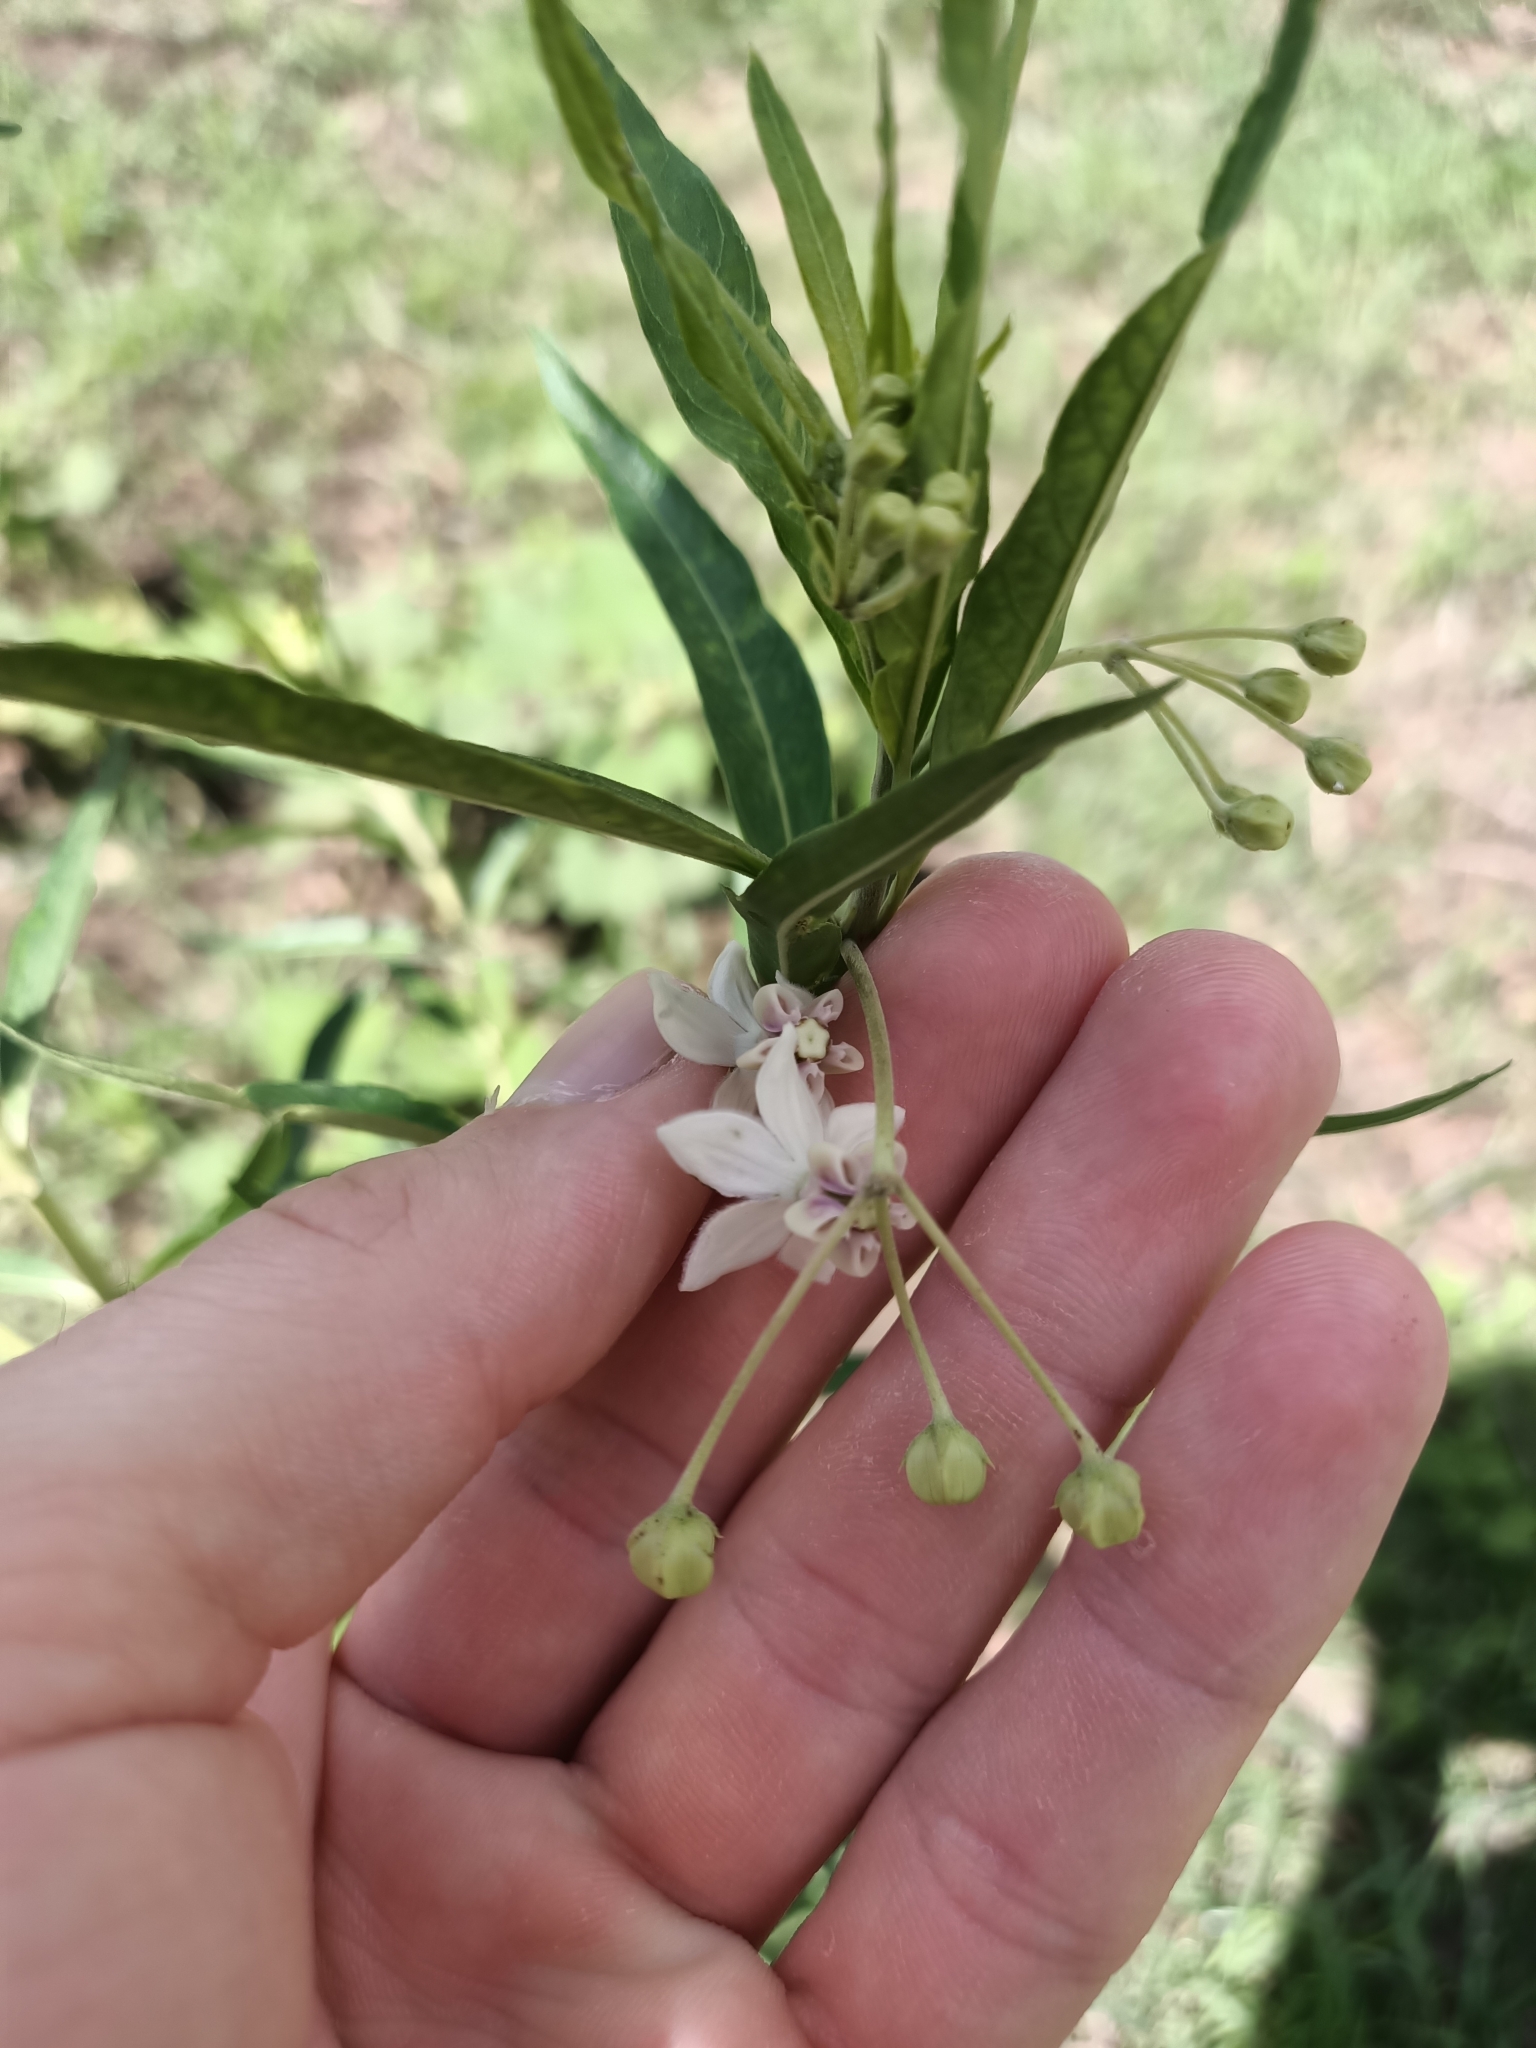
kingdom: Plantae
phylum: Tracheophyta
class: Magnoliopsida
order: Gentianales
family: Apocynaceae
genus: Gomphocarpus
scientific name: Gomphocarpus physocarpus
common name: Balloon cotton bush
